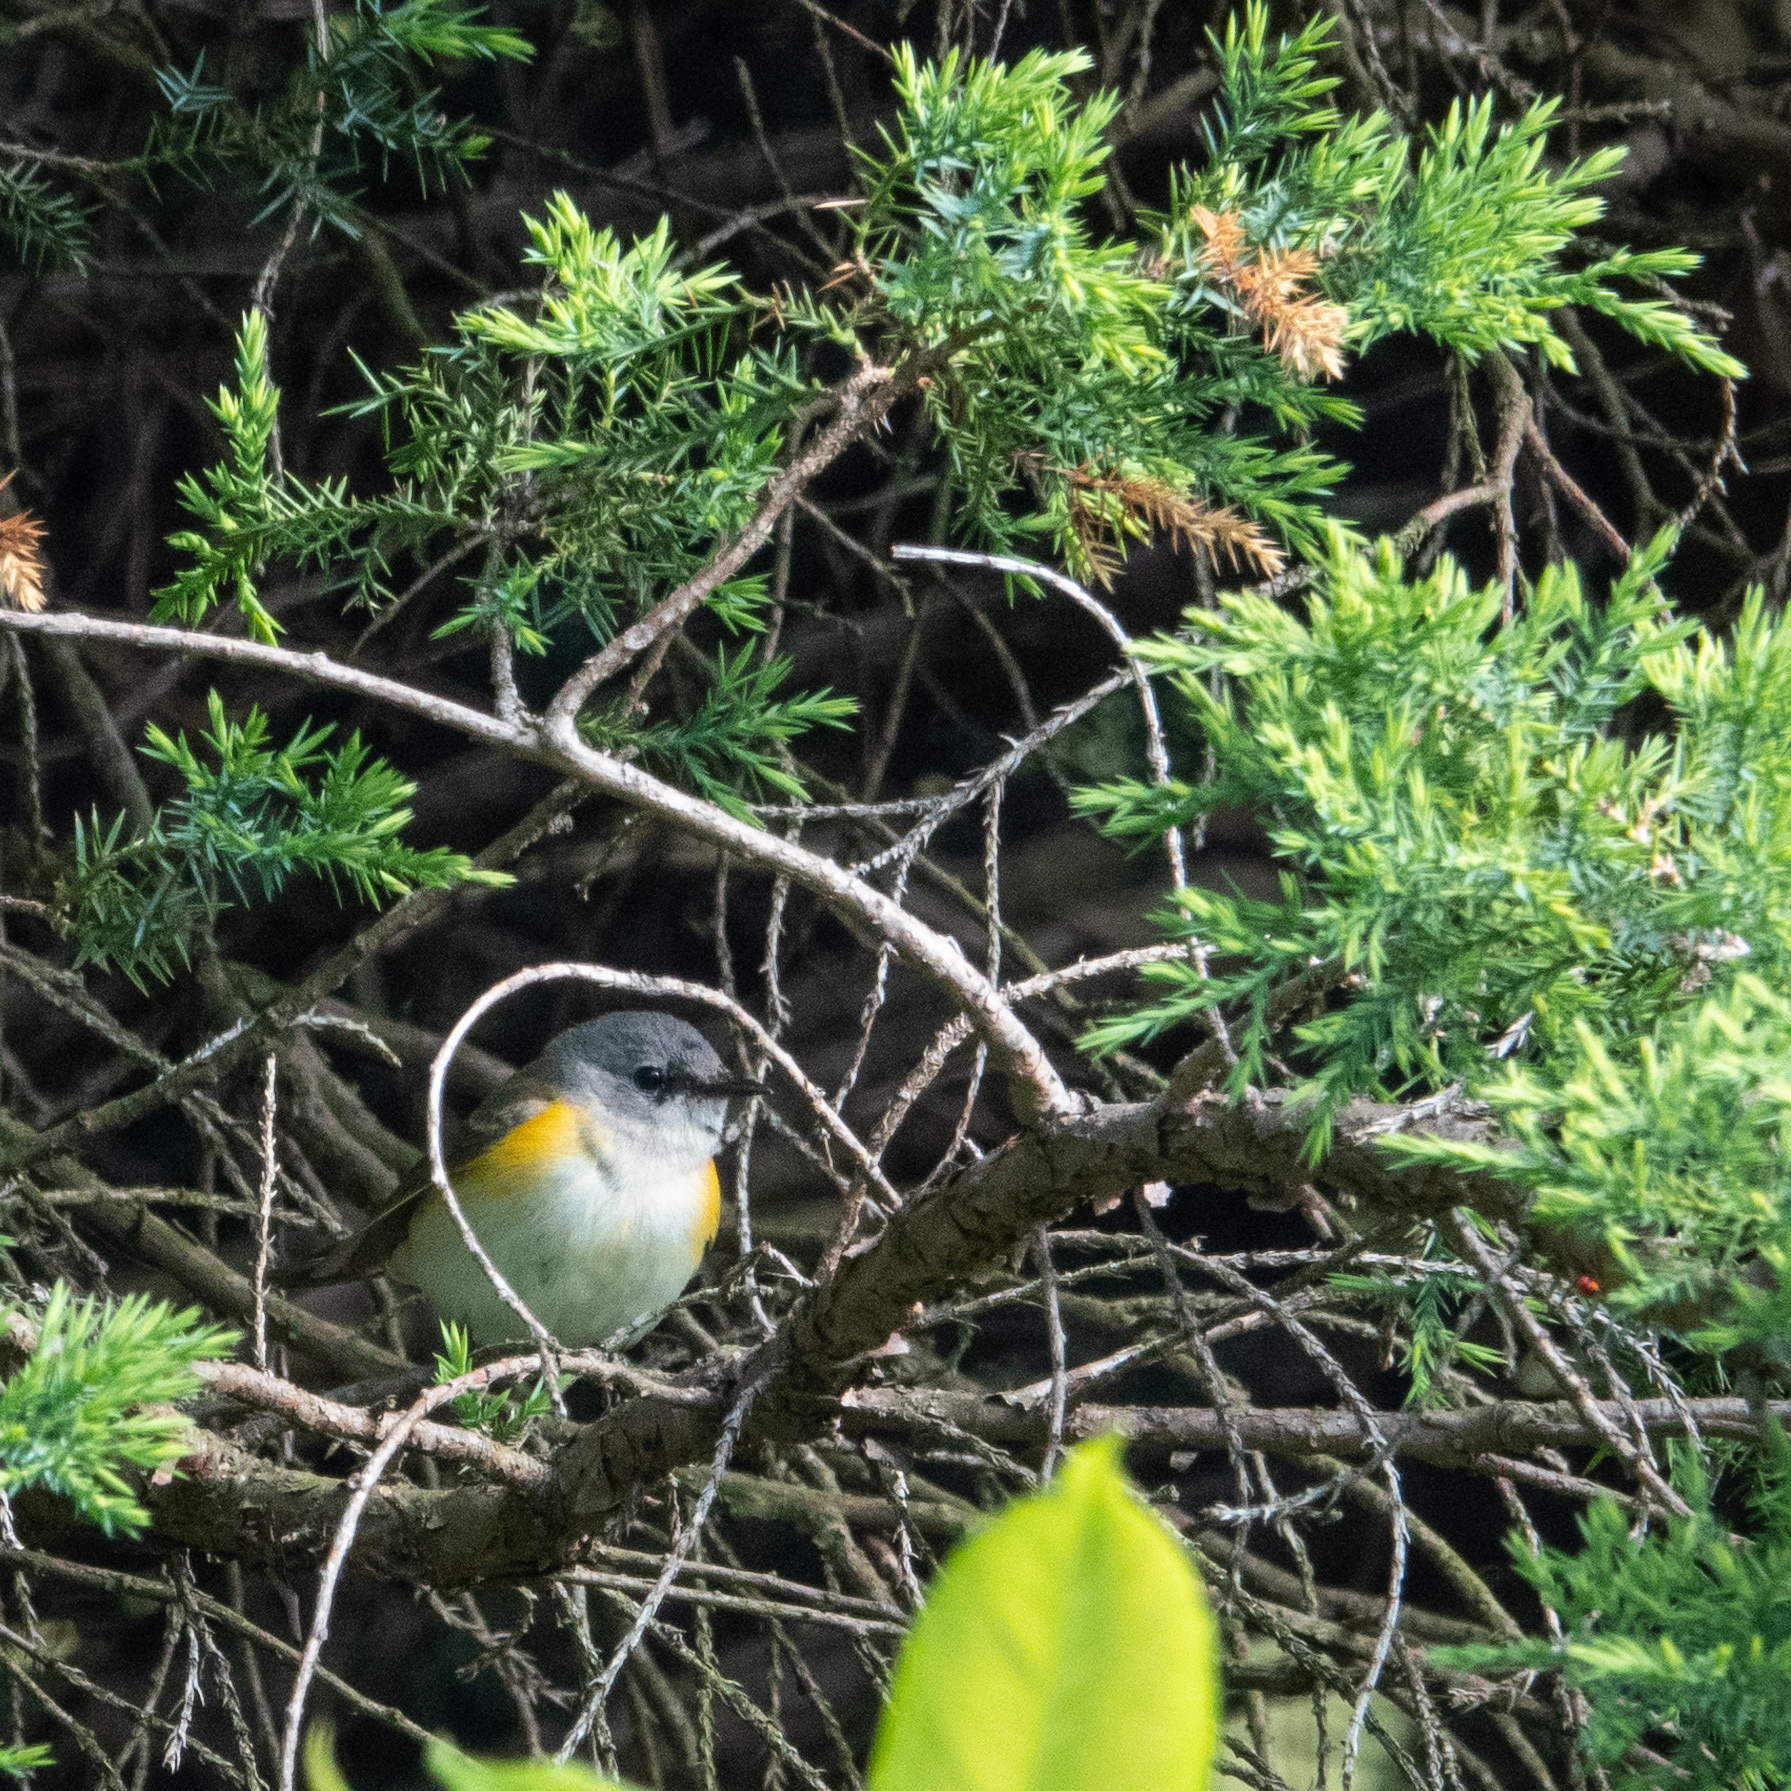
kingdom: Animalia
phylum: Chordata
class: Aves
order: Passeriformes
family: Parulidae
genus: Setophaga
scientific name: Setophaga ruticilla
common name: American redstart
